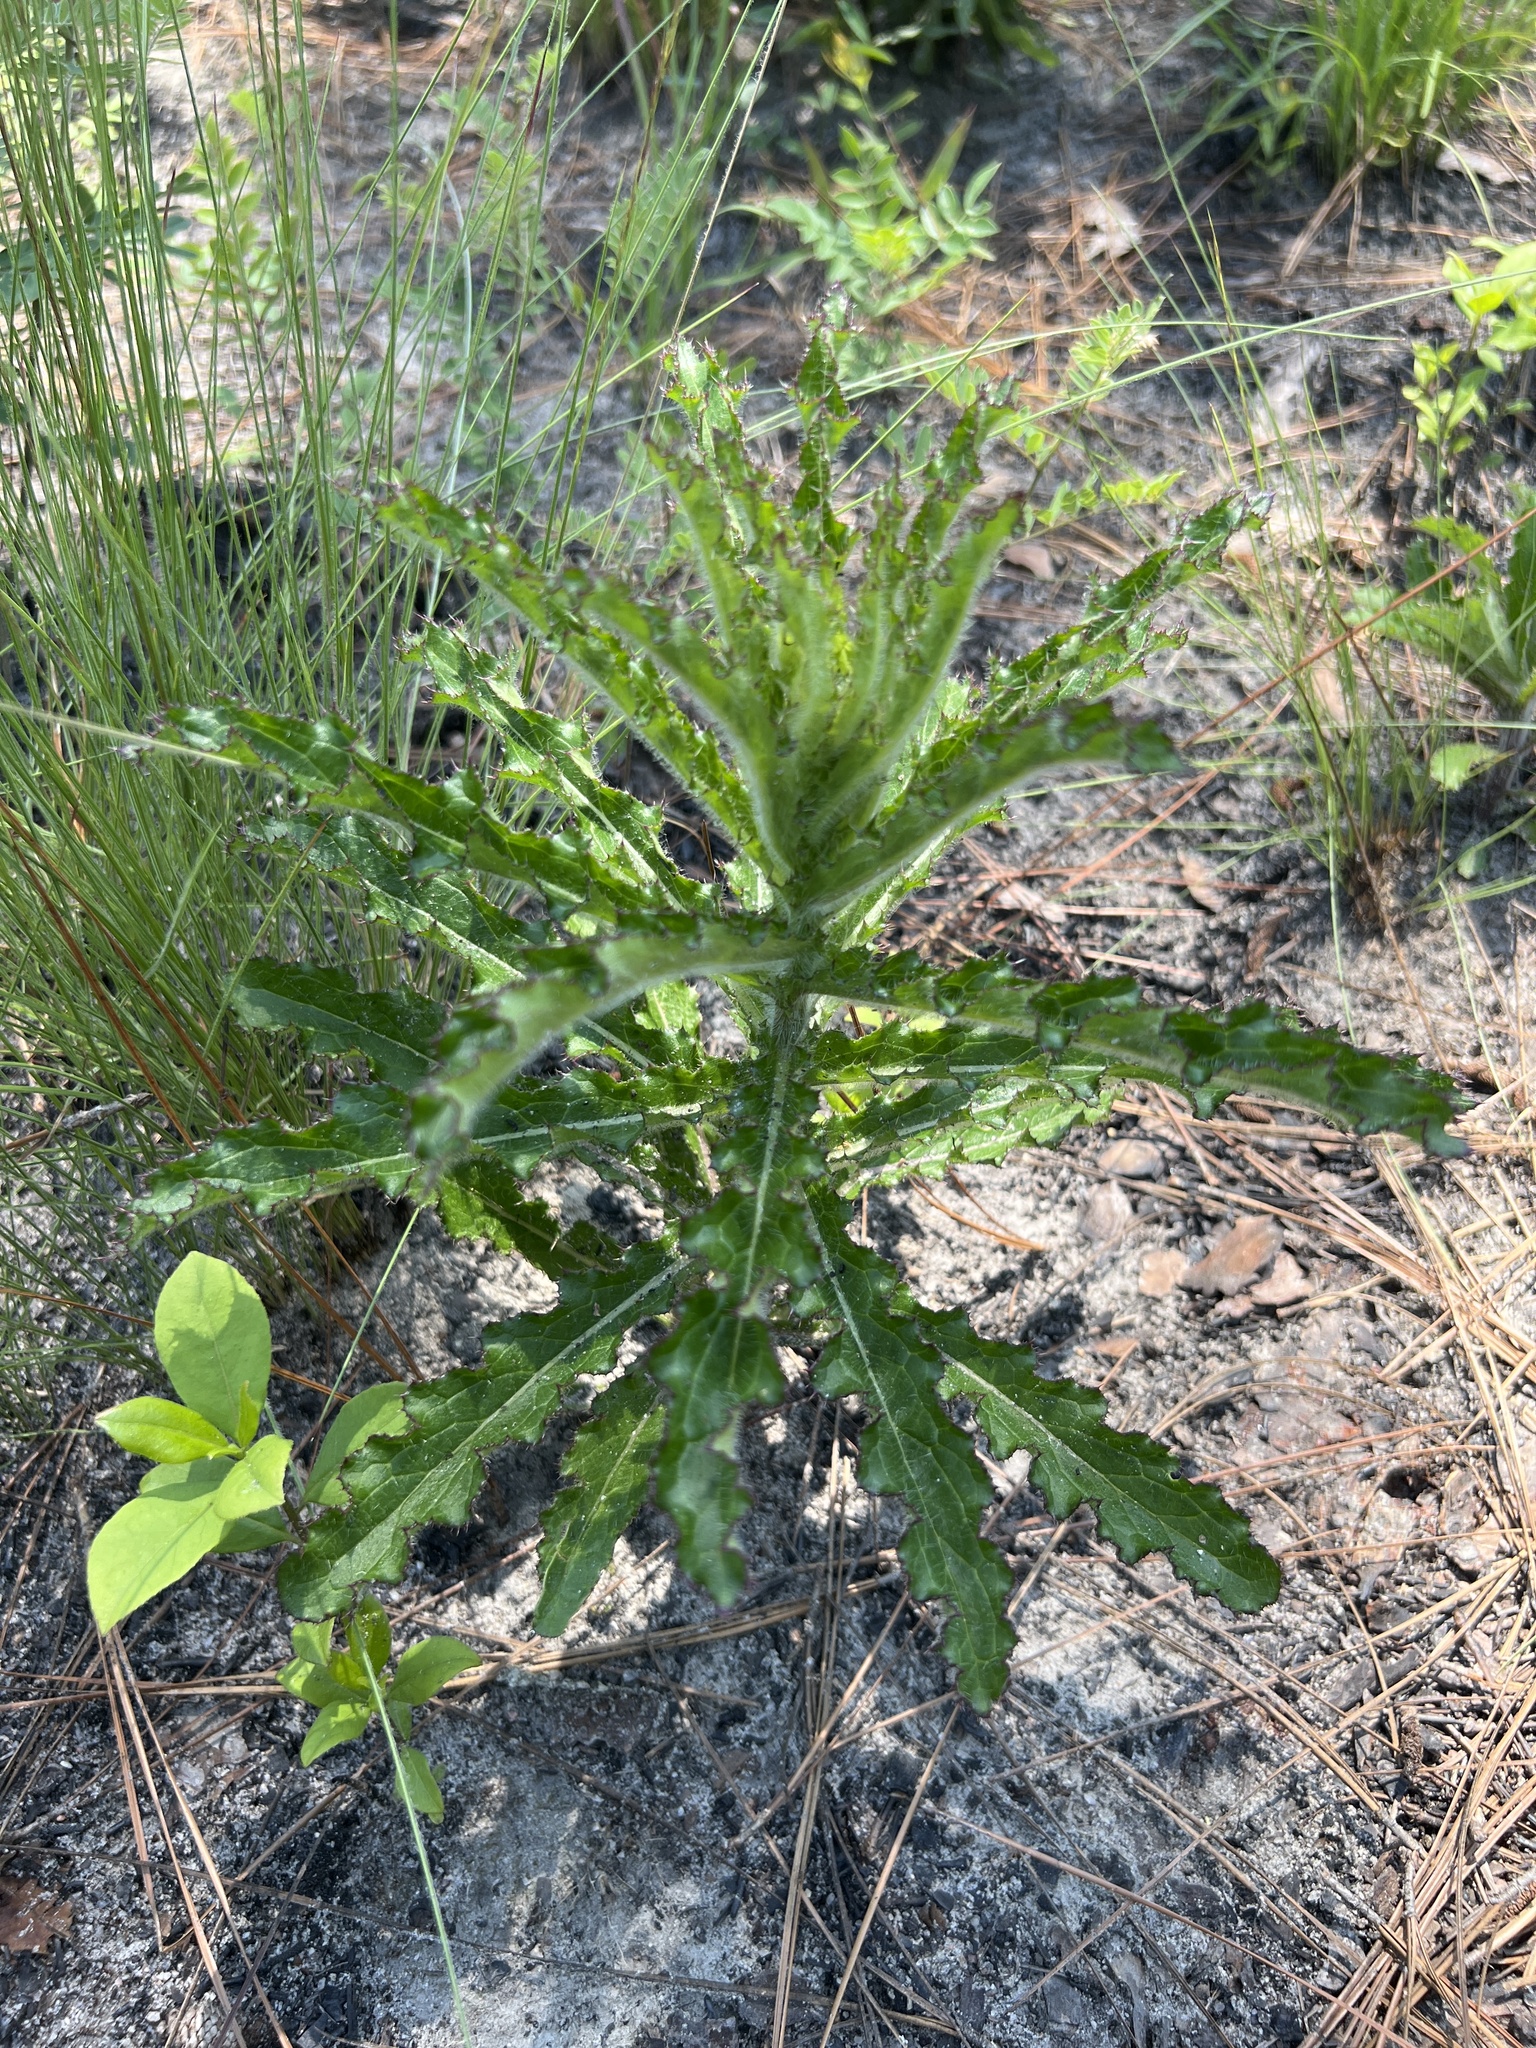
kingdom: Plantae
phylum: Tracheophyta
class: Magnoliopsida
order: Asterales
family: Asteraceae
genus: Cirsium
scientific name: Cirsium repandum
